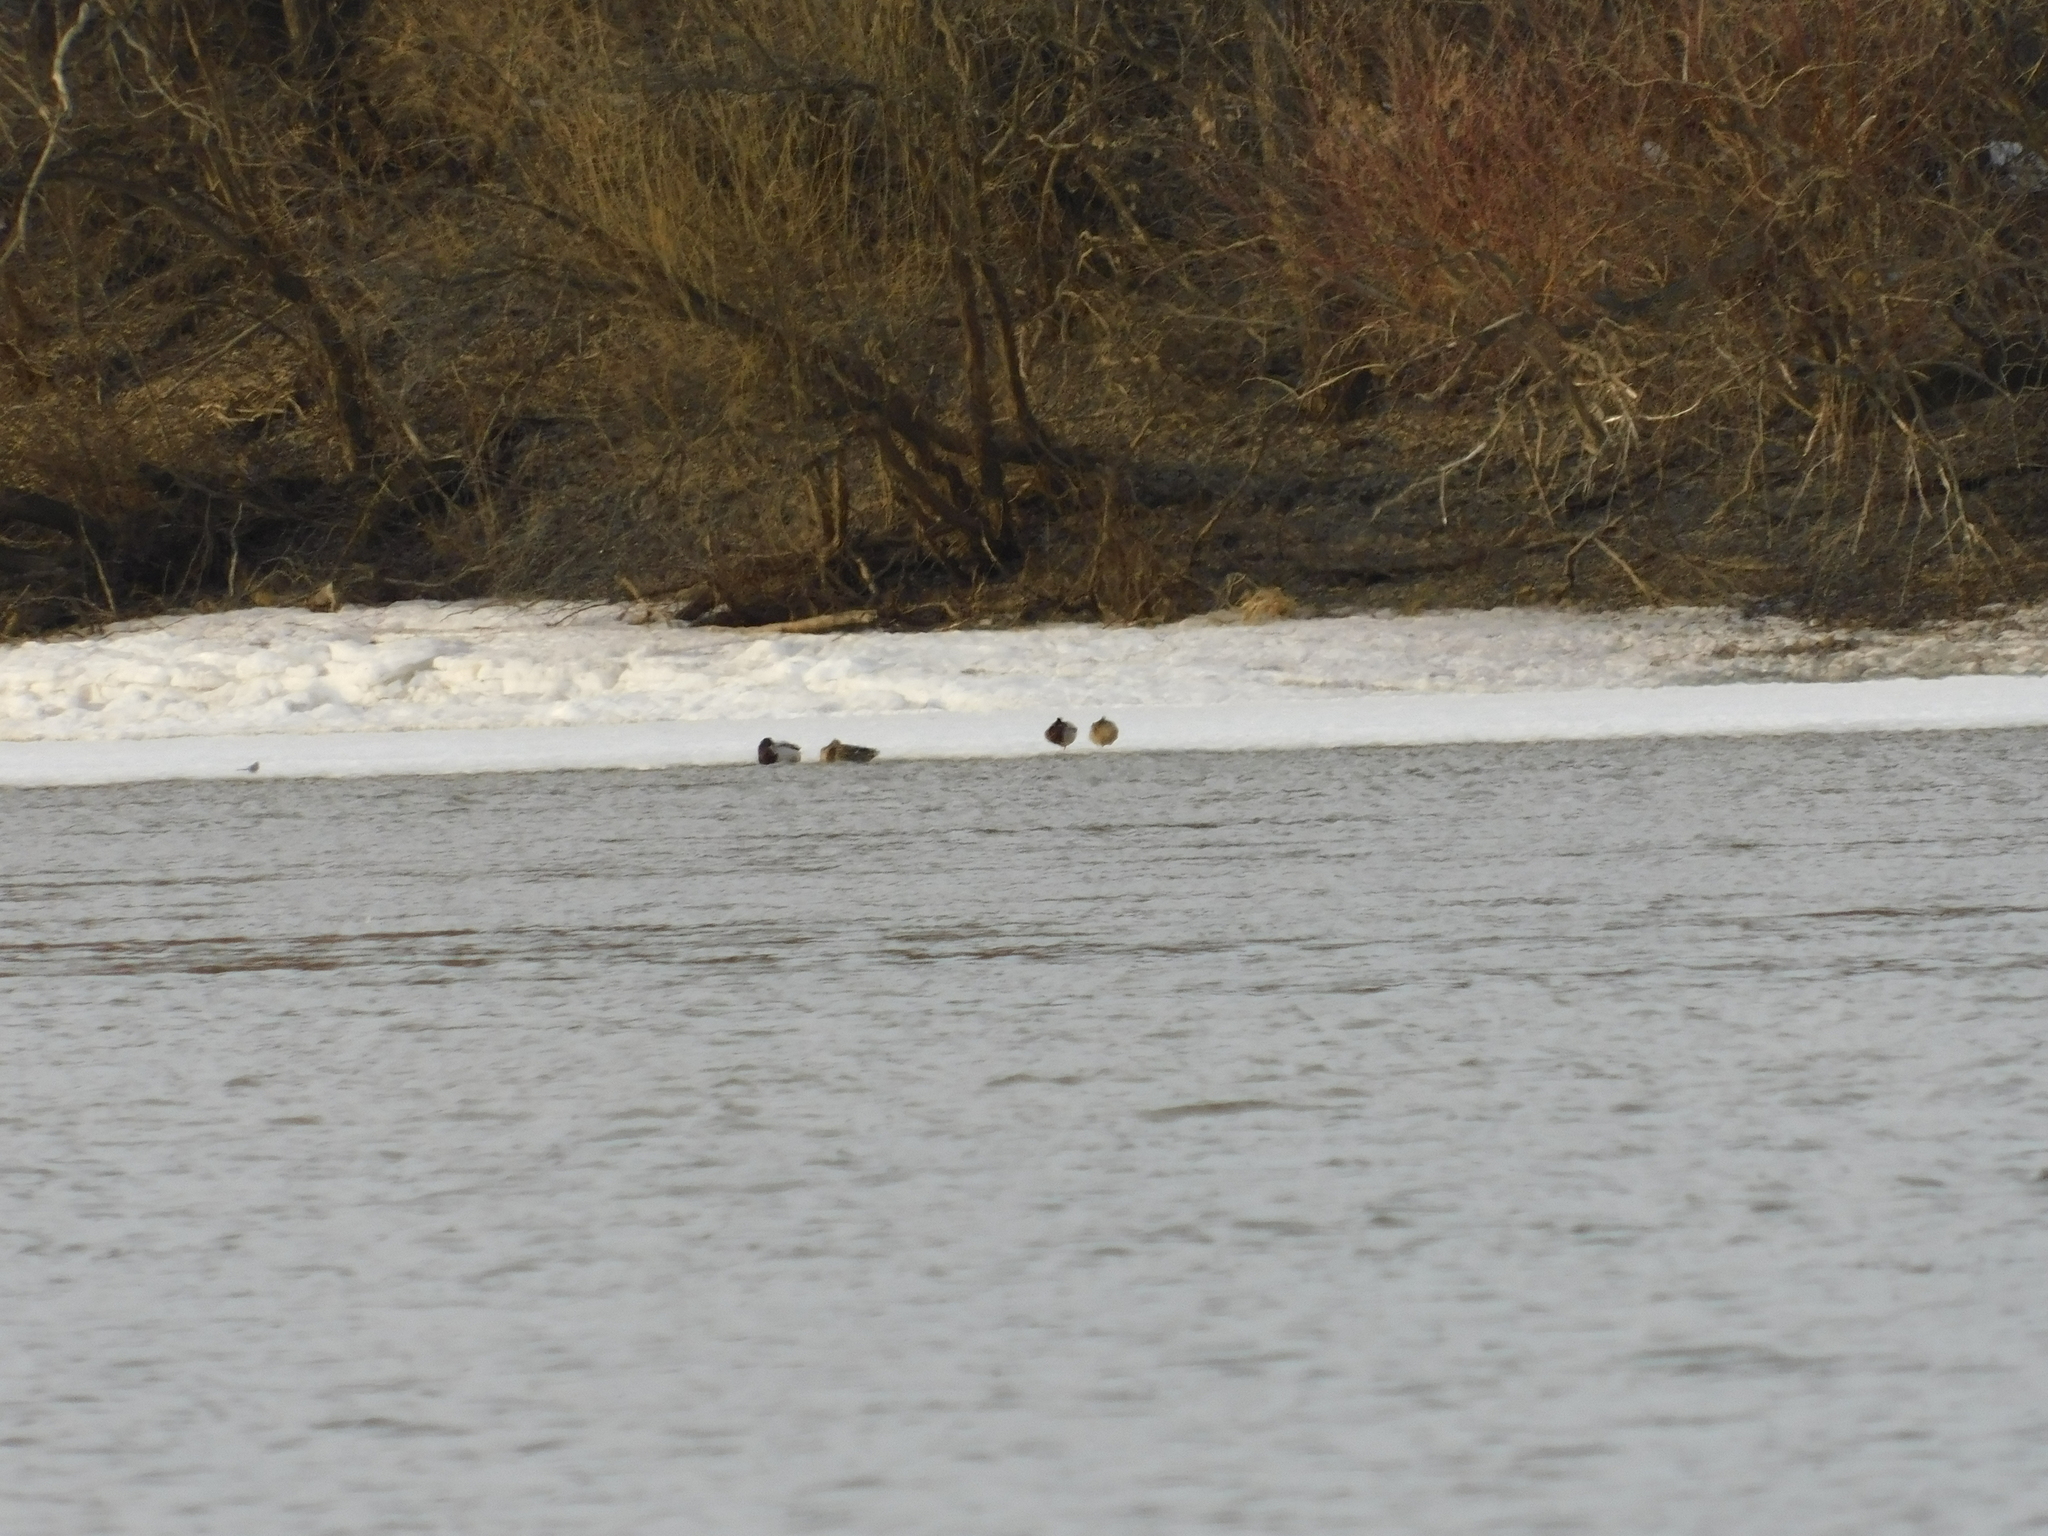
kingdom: Animalia
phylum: Chordata
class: Aves
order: Passeriformes
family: Motacillidae
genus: Motacilla
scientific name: Motacilla alba
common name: White wagtail
